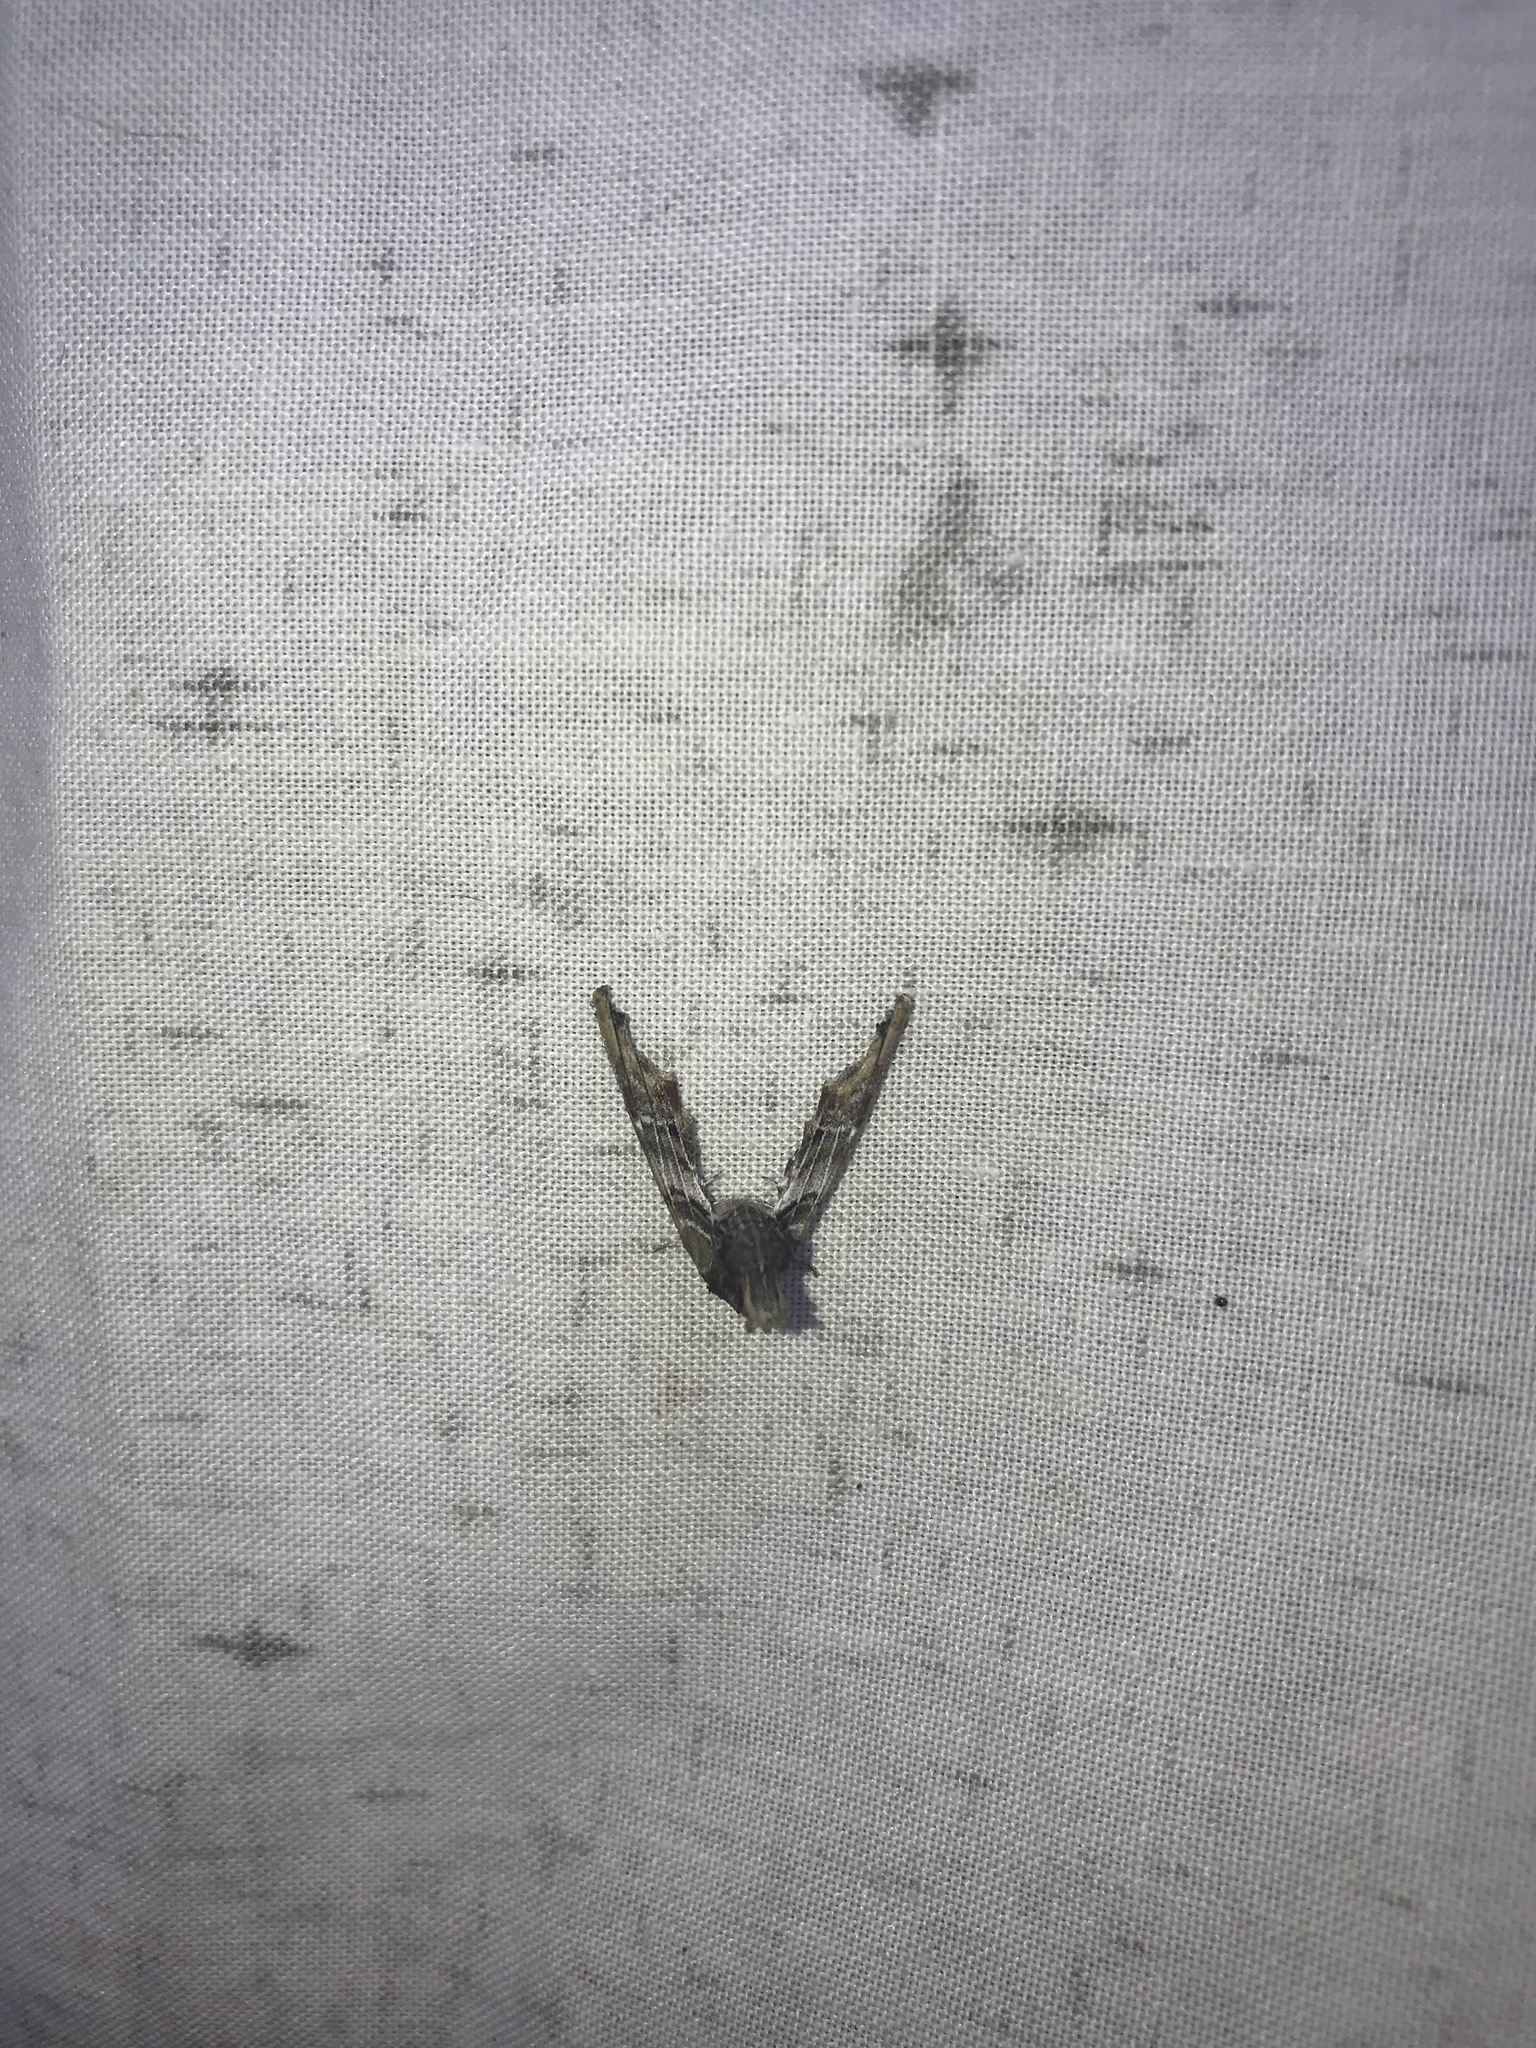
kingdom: Animalia
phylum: Arthropoda
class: Insecta
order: Lepidoptera
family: Euteliidae
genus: Marathyssa
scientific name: Marathyssa inficita
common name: Dark marathyssa moth
